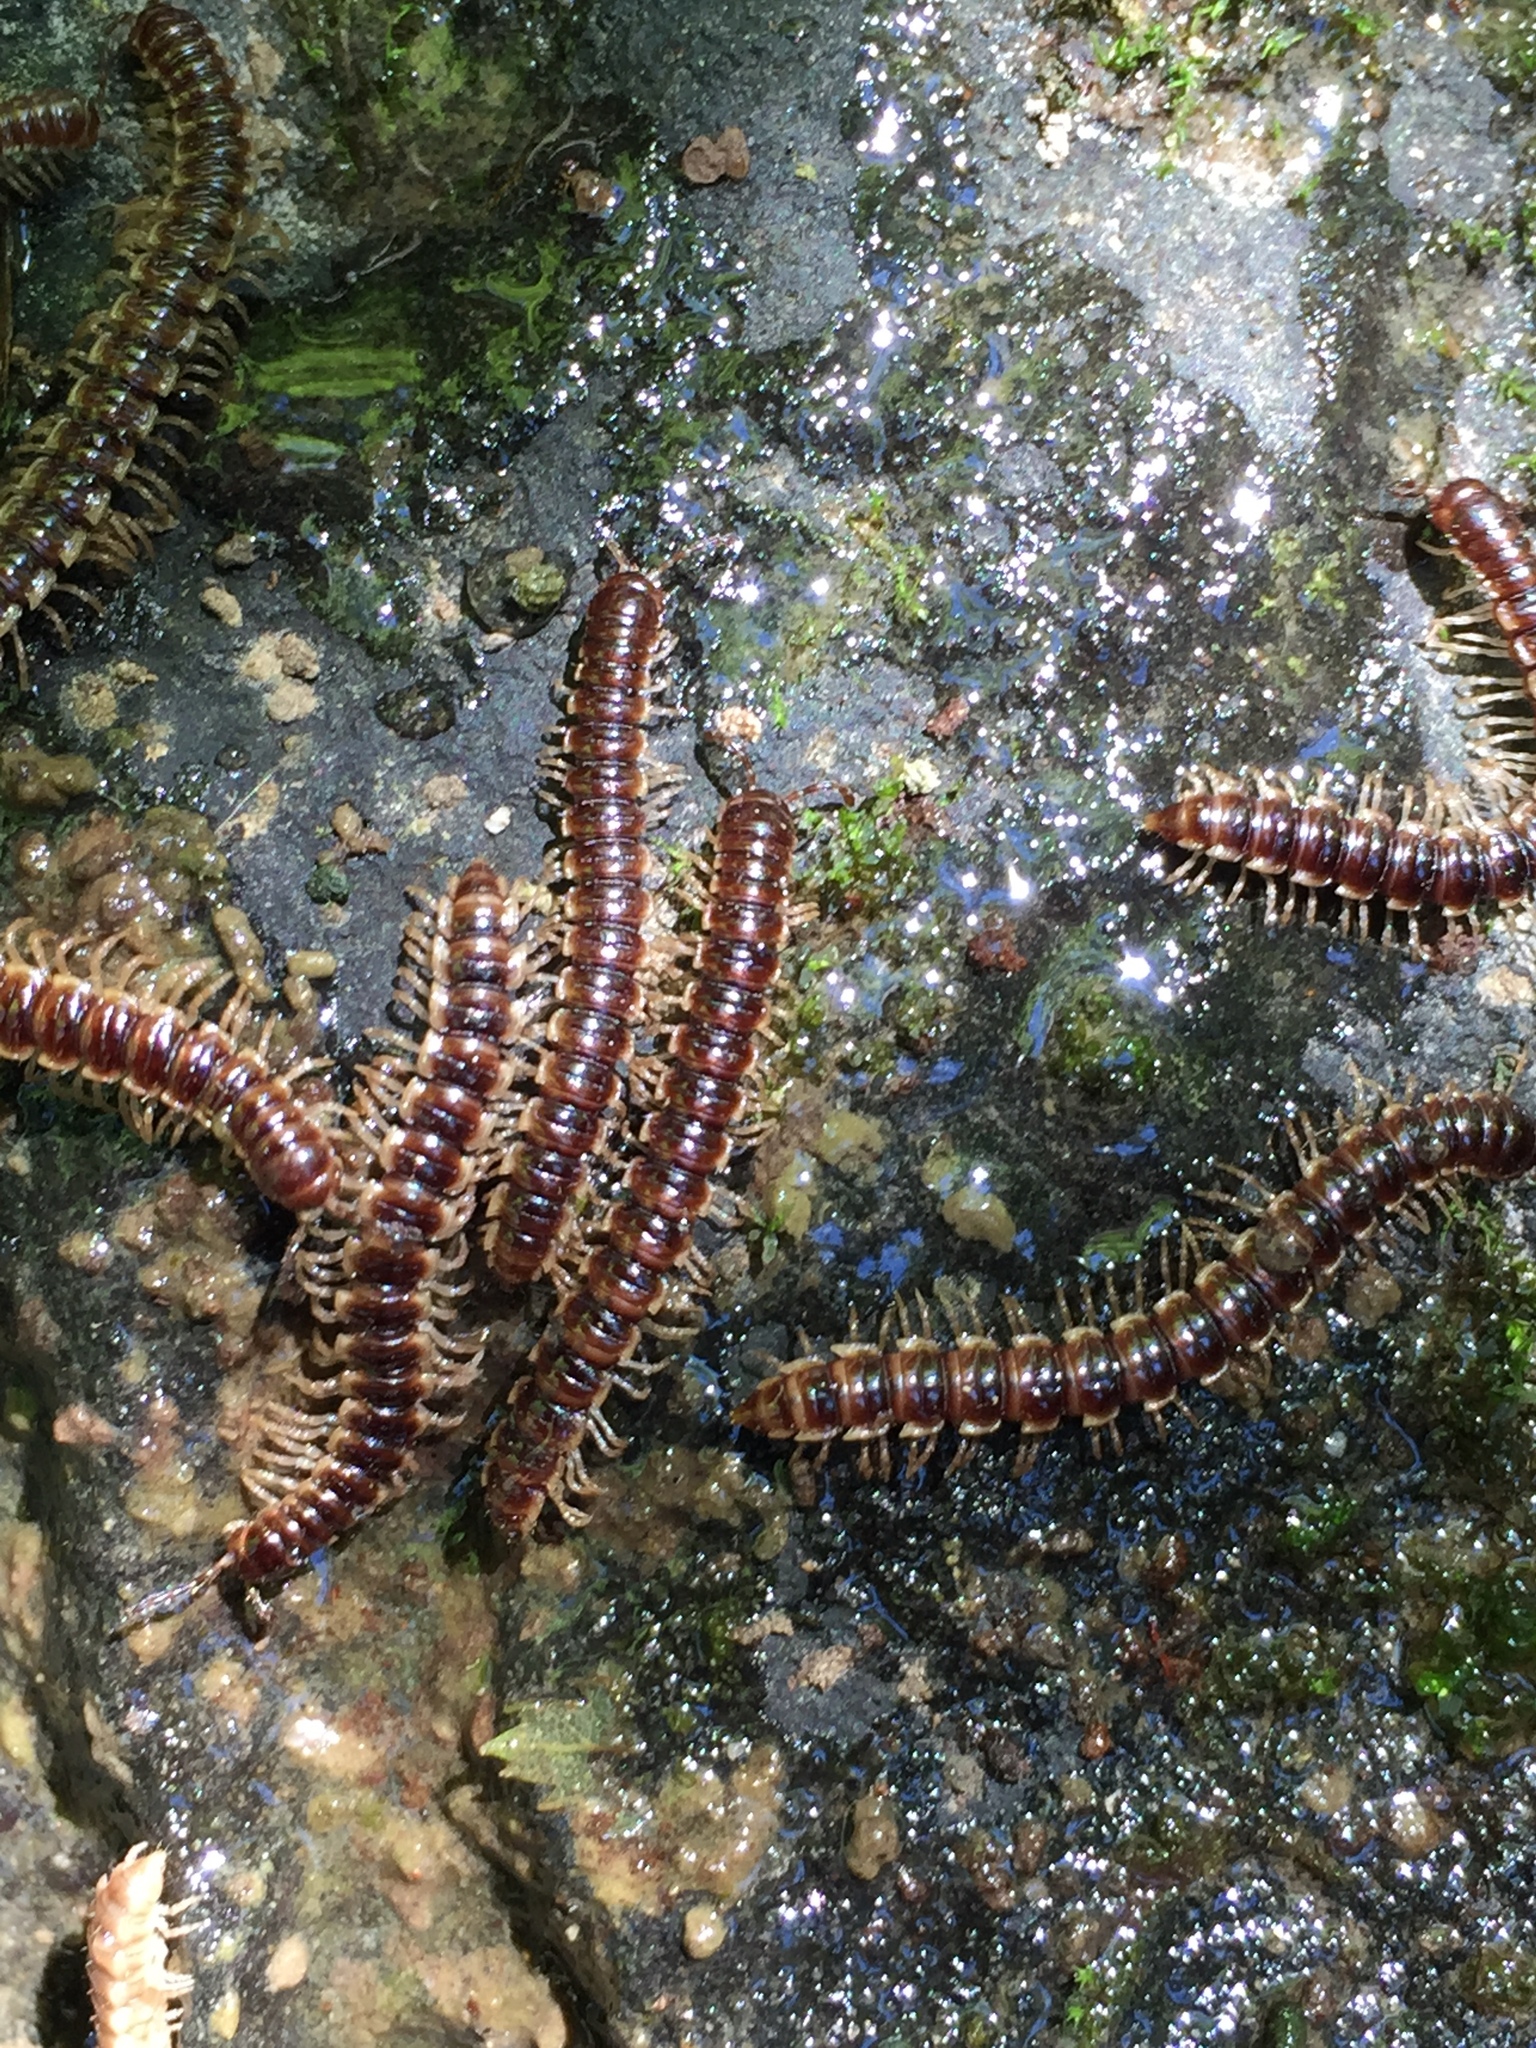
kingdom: Animalia
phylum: Arthropoda
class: Diplopoda
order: Polydesmida
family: Paradoxosomatidae
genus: Oxidus
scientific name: Oxidus gracilis
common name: Greenhouse millipede
